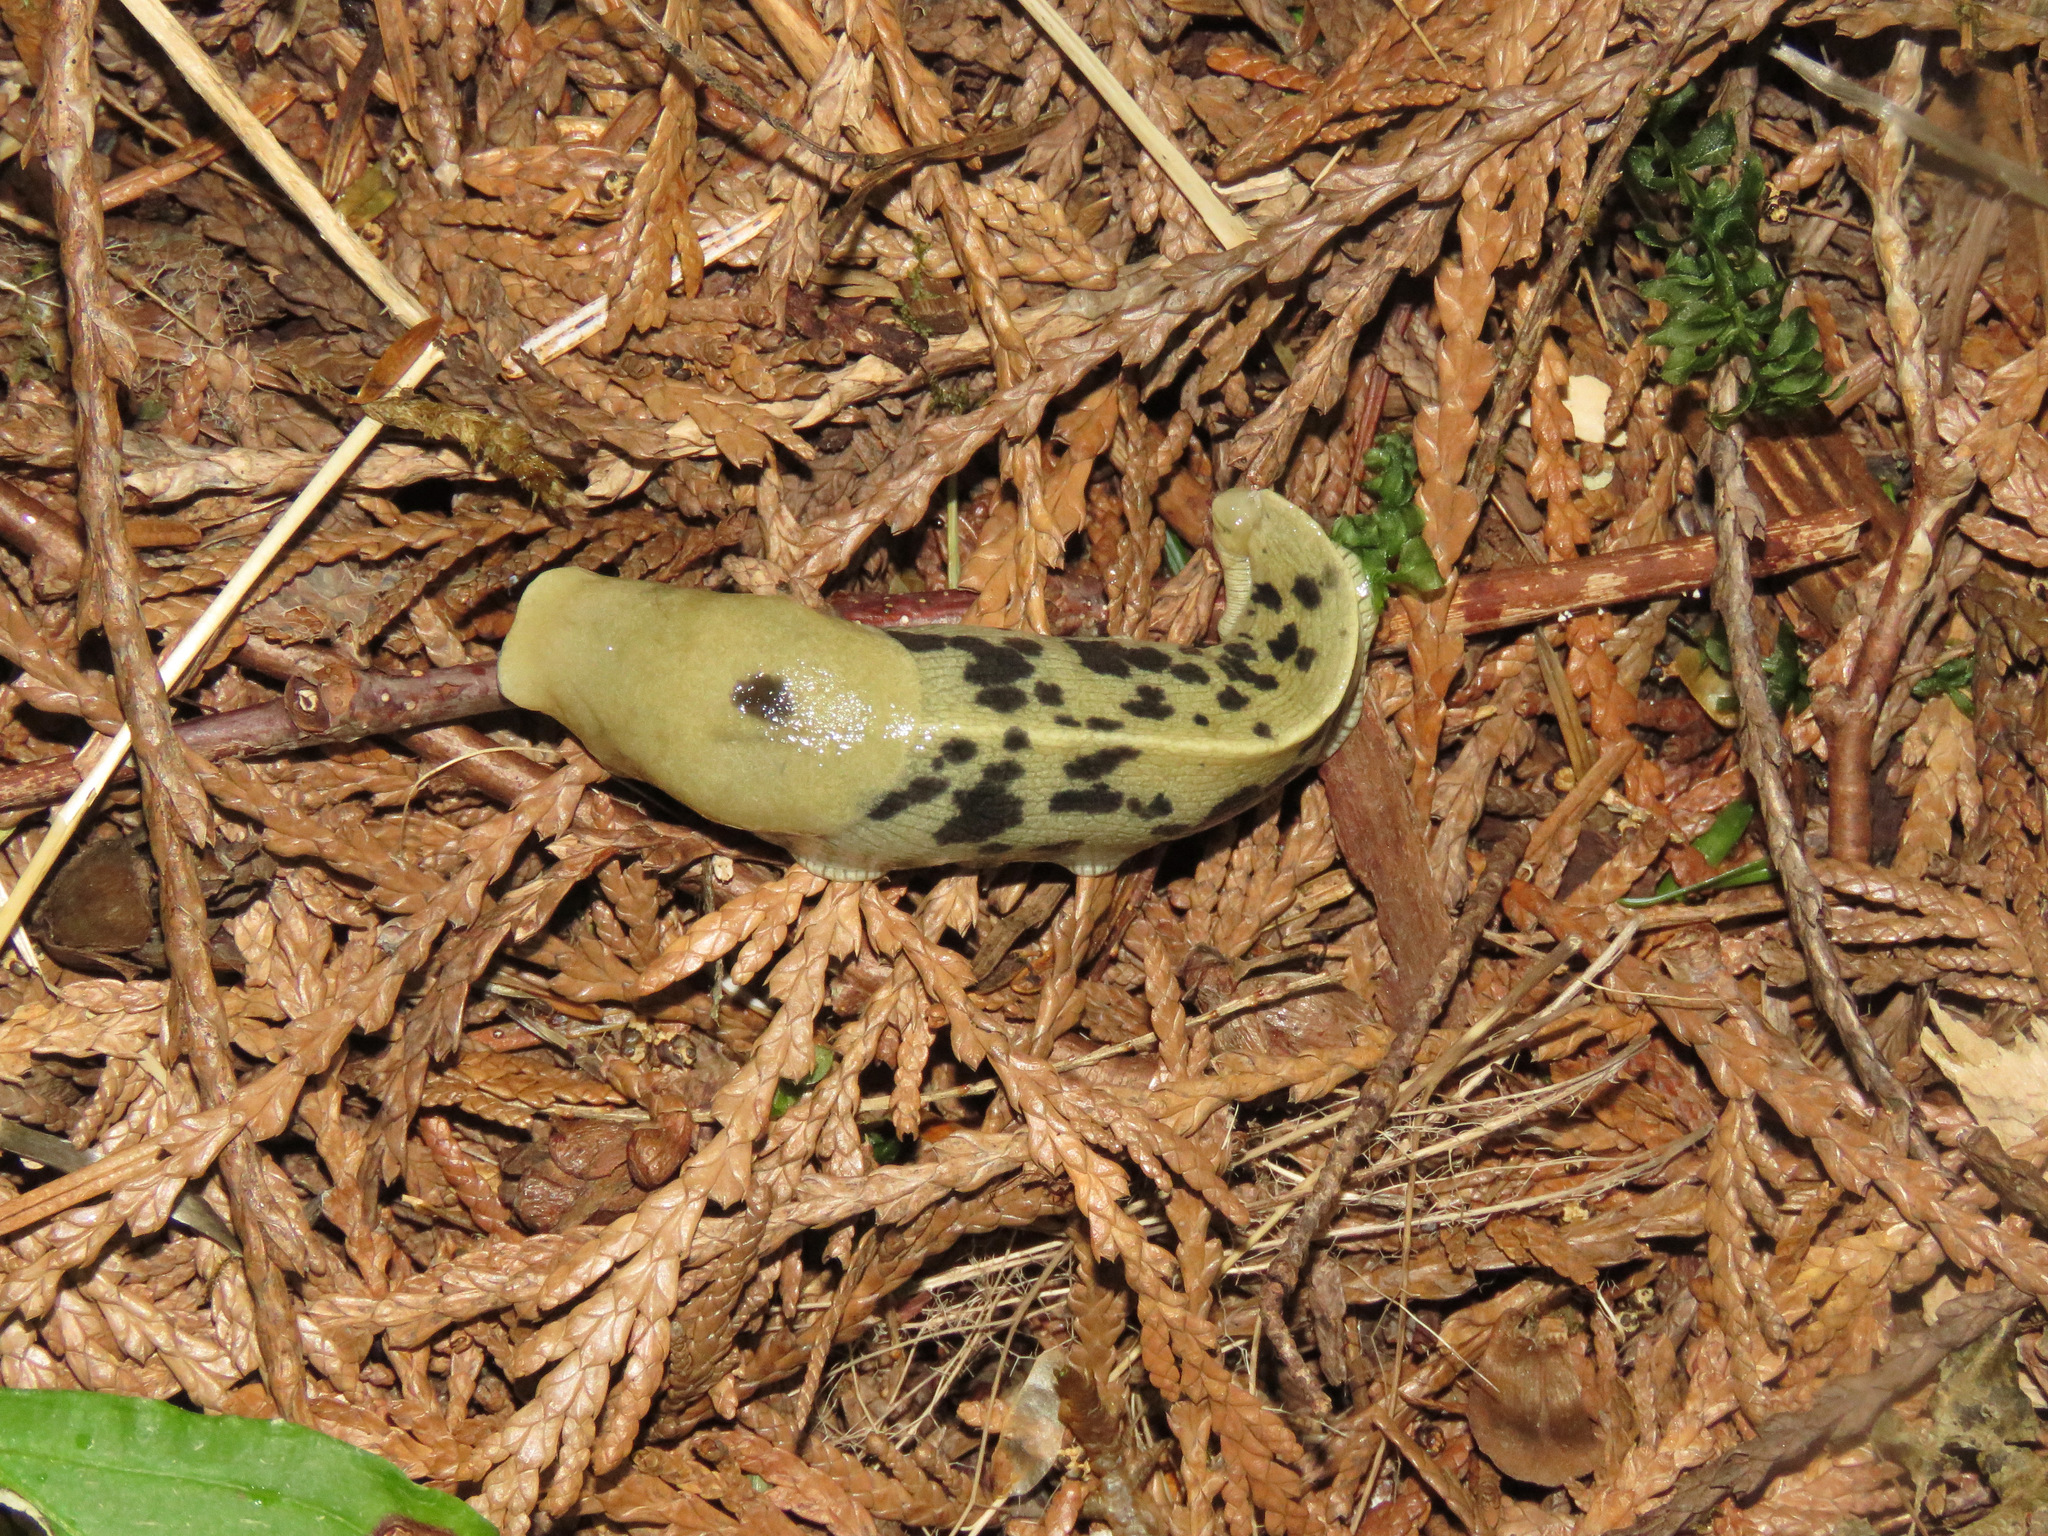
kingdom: Animalia
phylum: Mollusca
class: Gastropoda
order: Stylommatophora
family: Ariolimacidae
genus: Ariolimax
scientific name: Ariolimax columbianus
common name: Pacific banana slug
